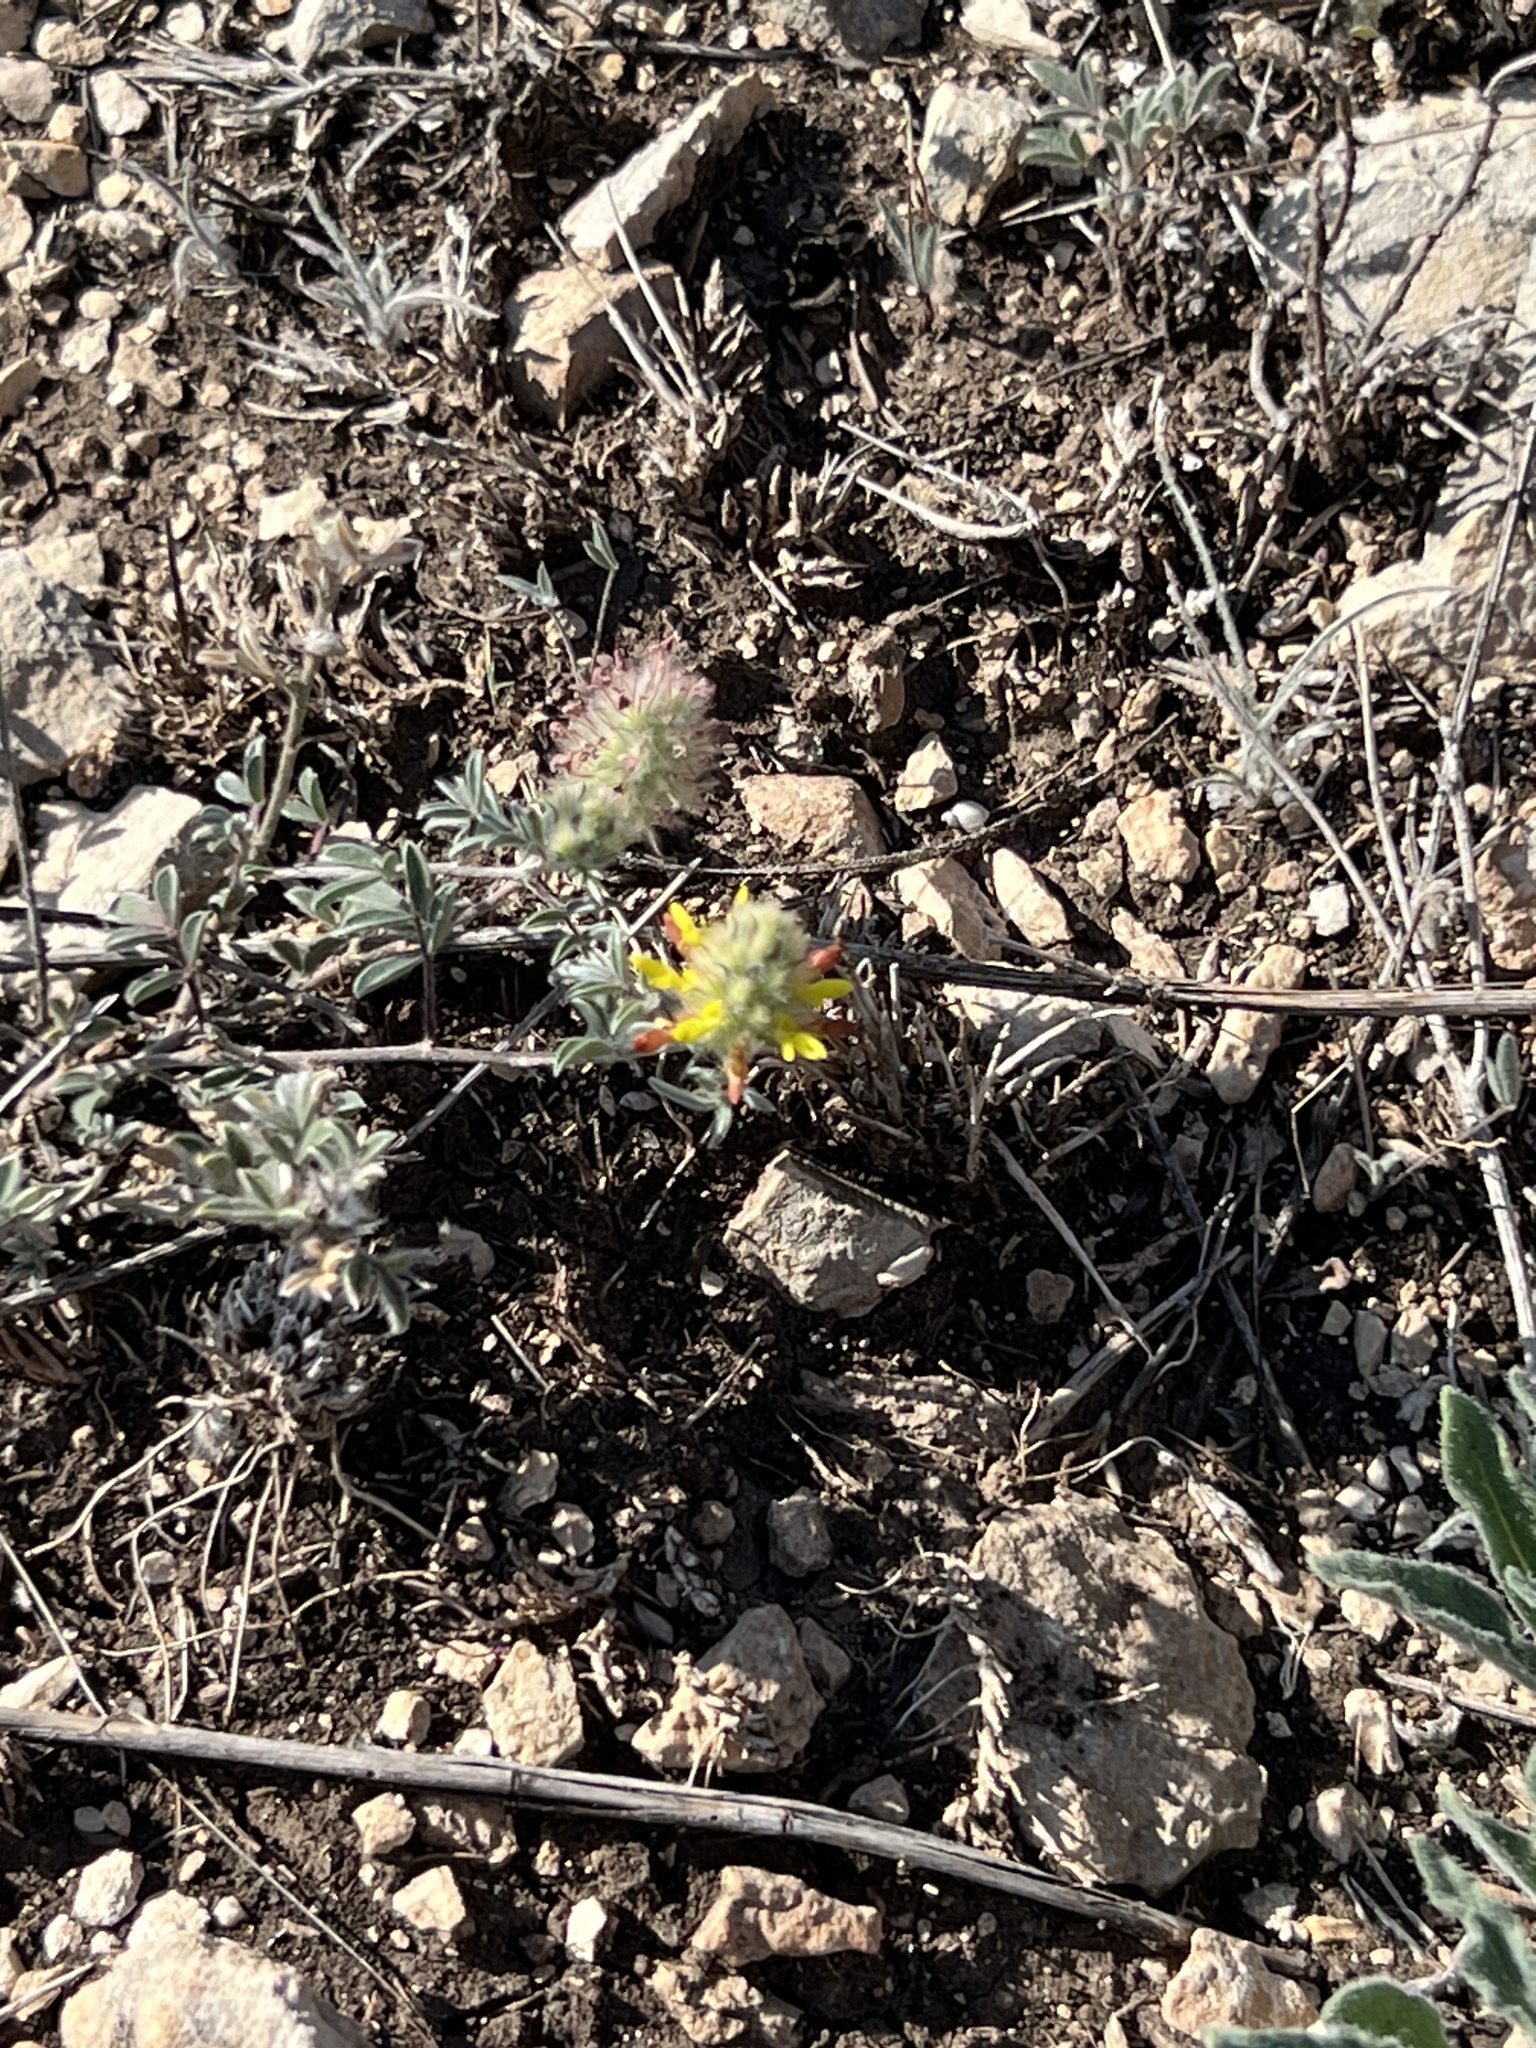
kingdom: Plantae
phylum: Tracheophyta
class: Magnoliopsida
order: Fabales
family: Fabaceae
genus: Dalea
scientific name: Dalea nana
